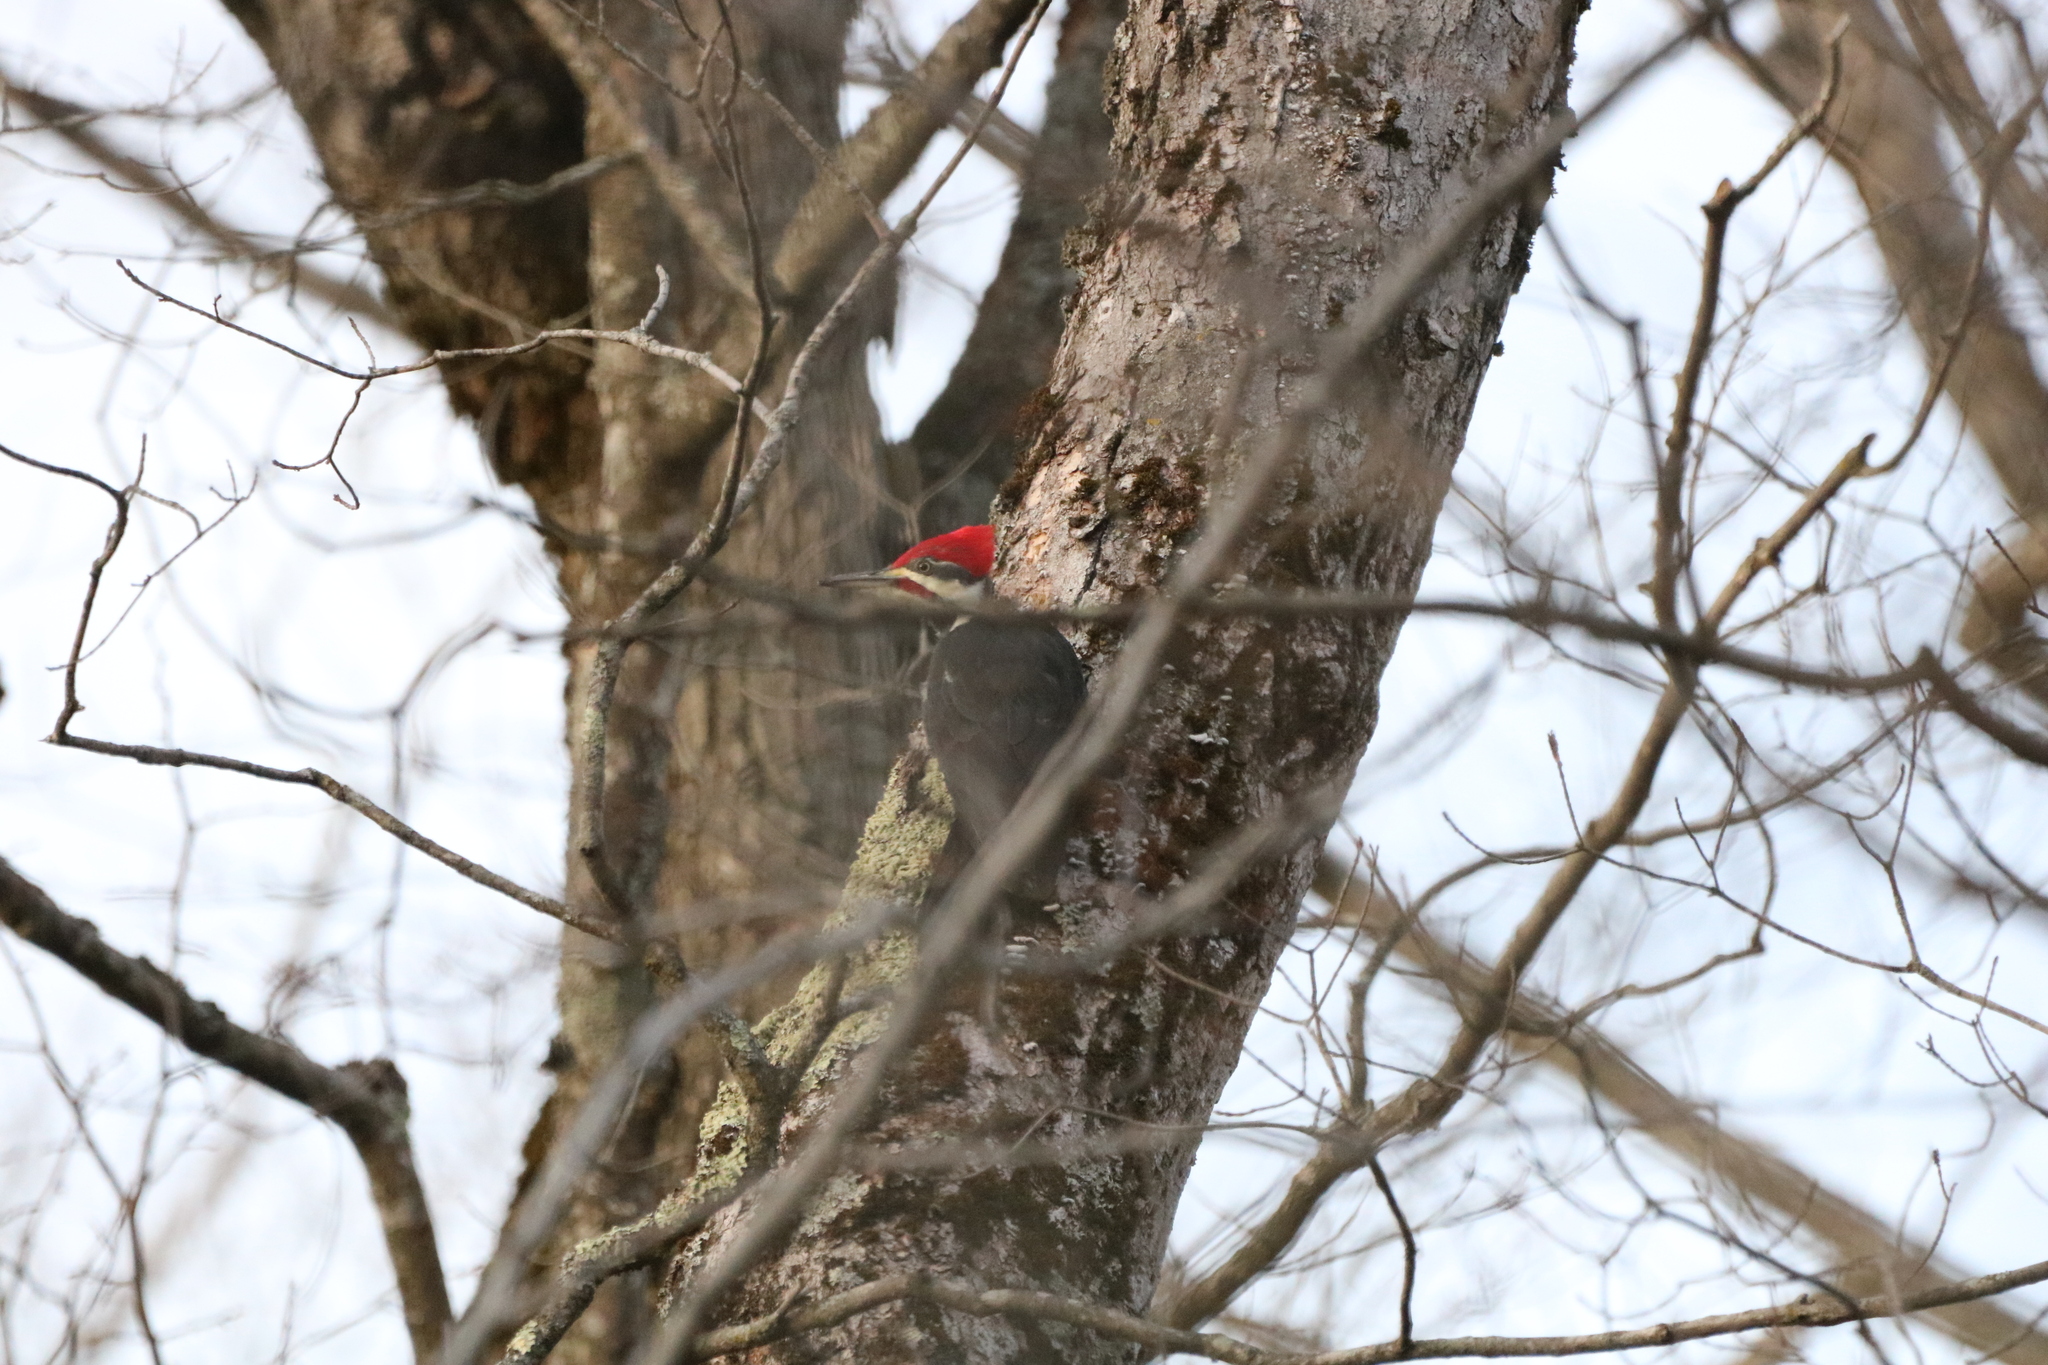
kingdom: Animalia
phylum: Chordata
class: Aves
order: Piciformes
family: Picidae
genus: Dryocopus
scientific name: Dryocopus pileatus
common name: Pileated woodpecker
